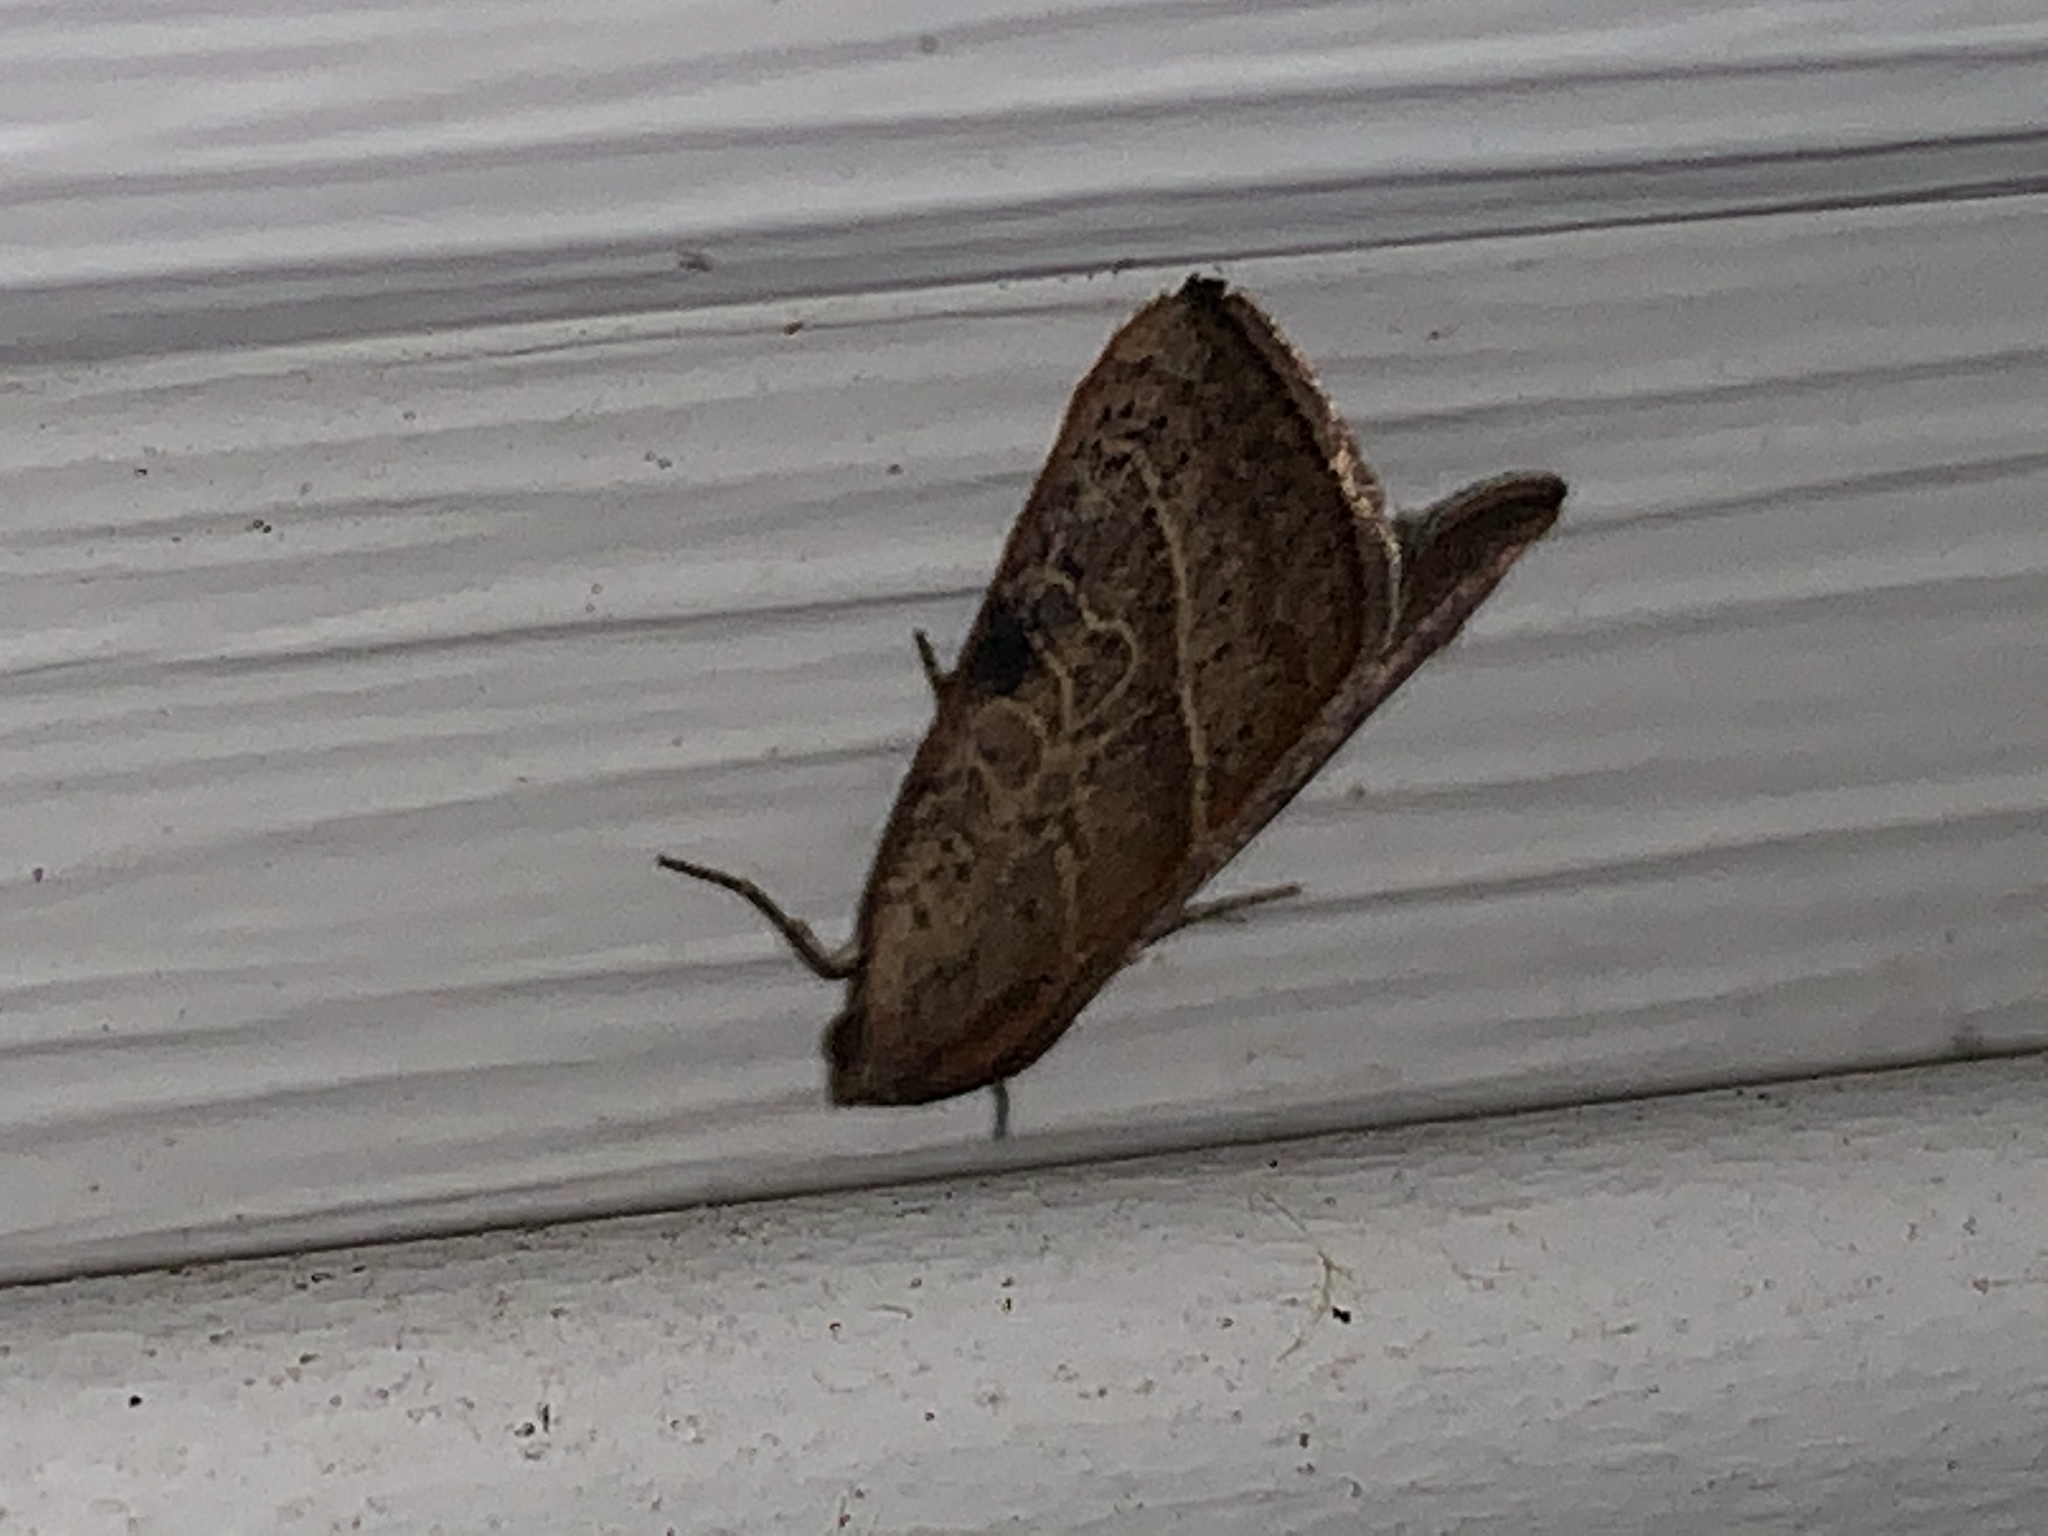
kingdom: Animalia
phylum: Arthropoda
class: Insecta
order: Lepidoptera
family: Noctuidae
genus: Galgula
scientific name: Galgula partita
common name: Wedgeling
